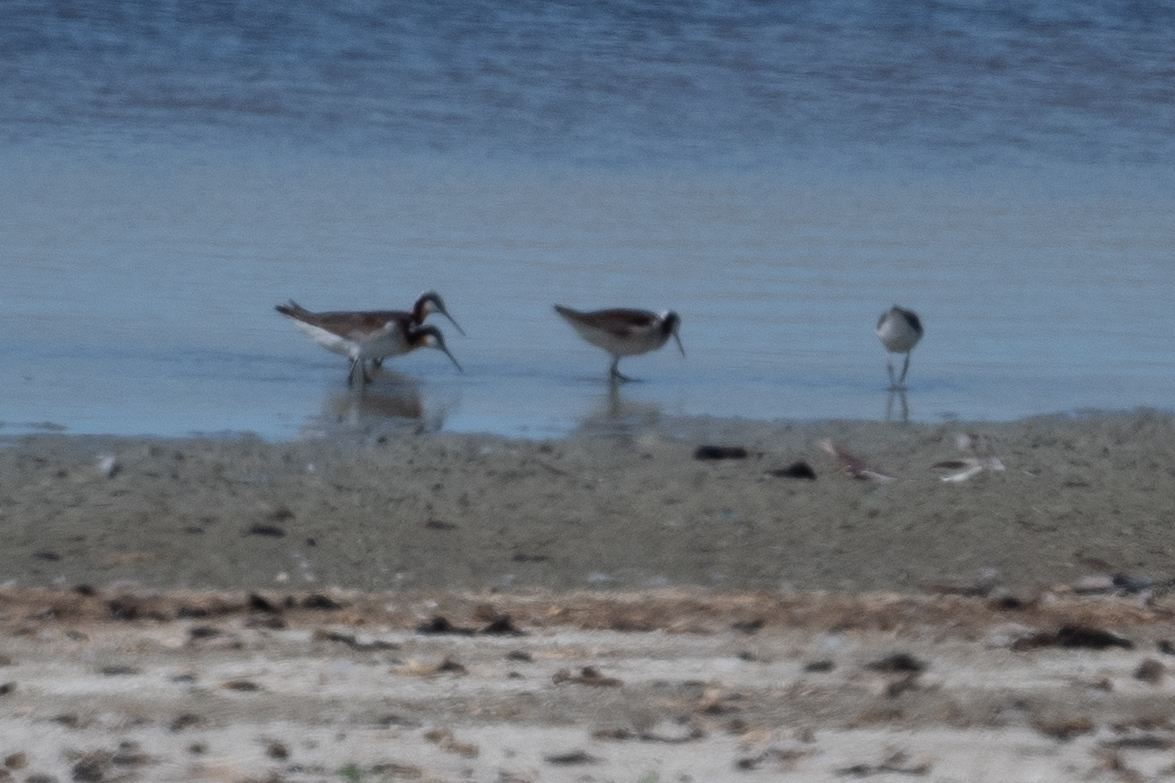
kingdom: Animalia
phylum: Chordata
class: Aves
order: Charadriiformes
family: Scolopacidae
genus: Phalaropus
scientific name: Phalaropus tricolor
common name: Wilson's phalarope
